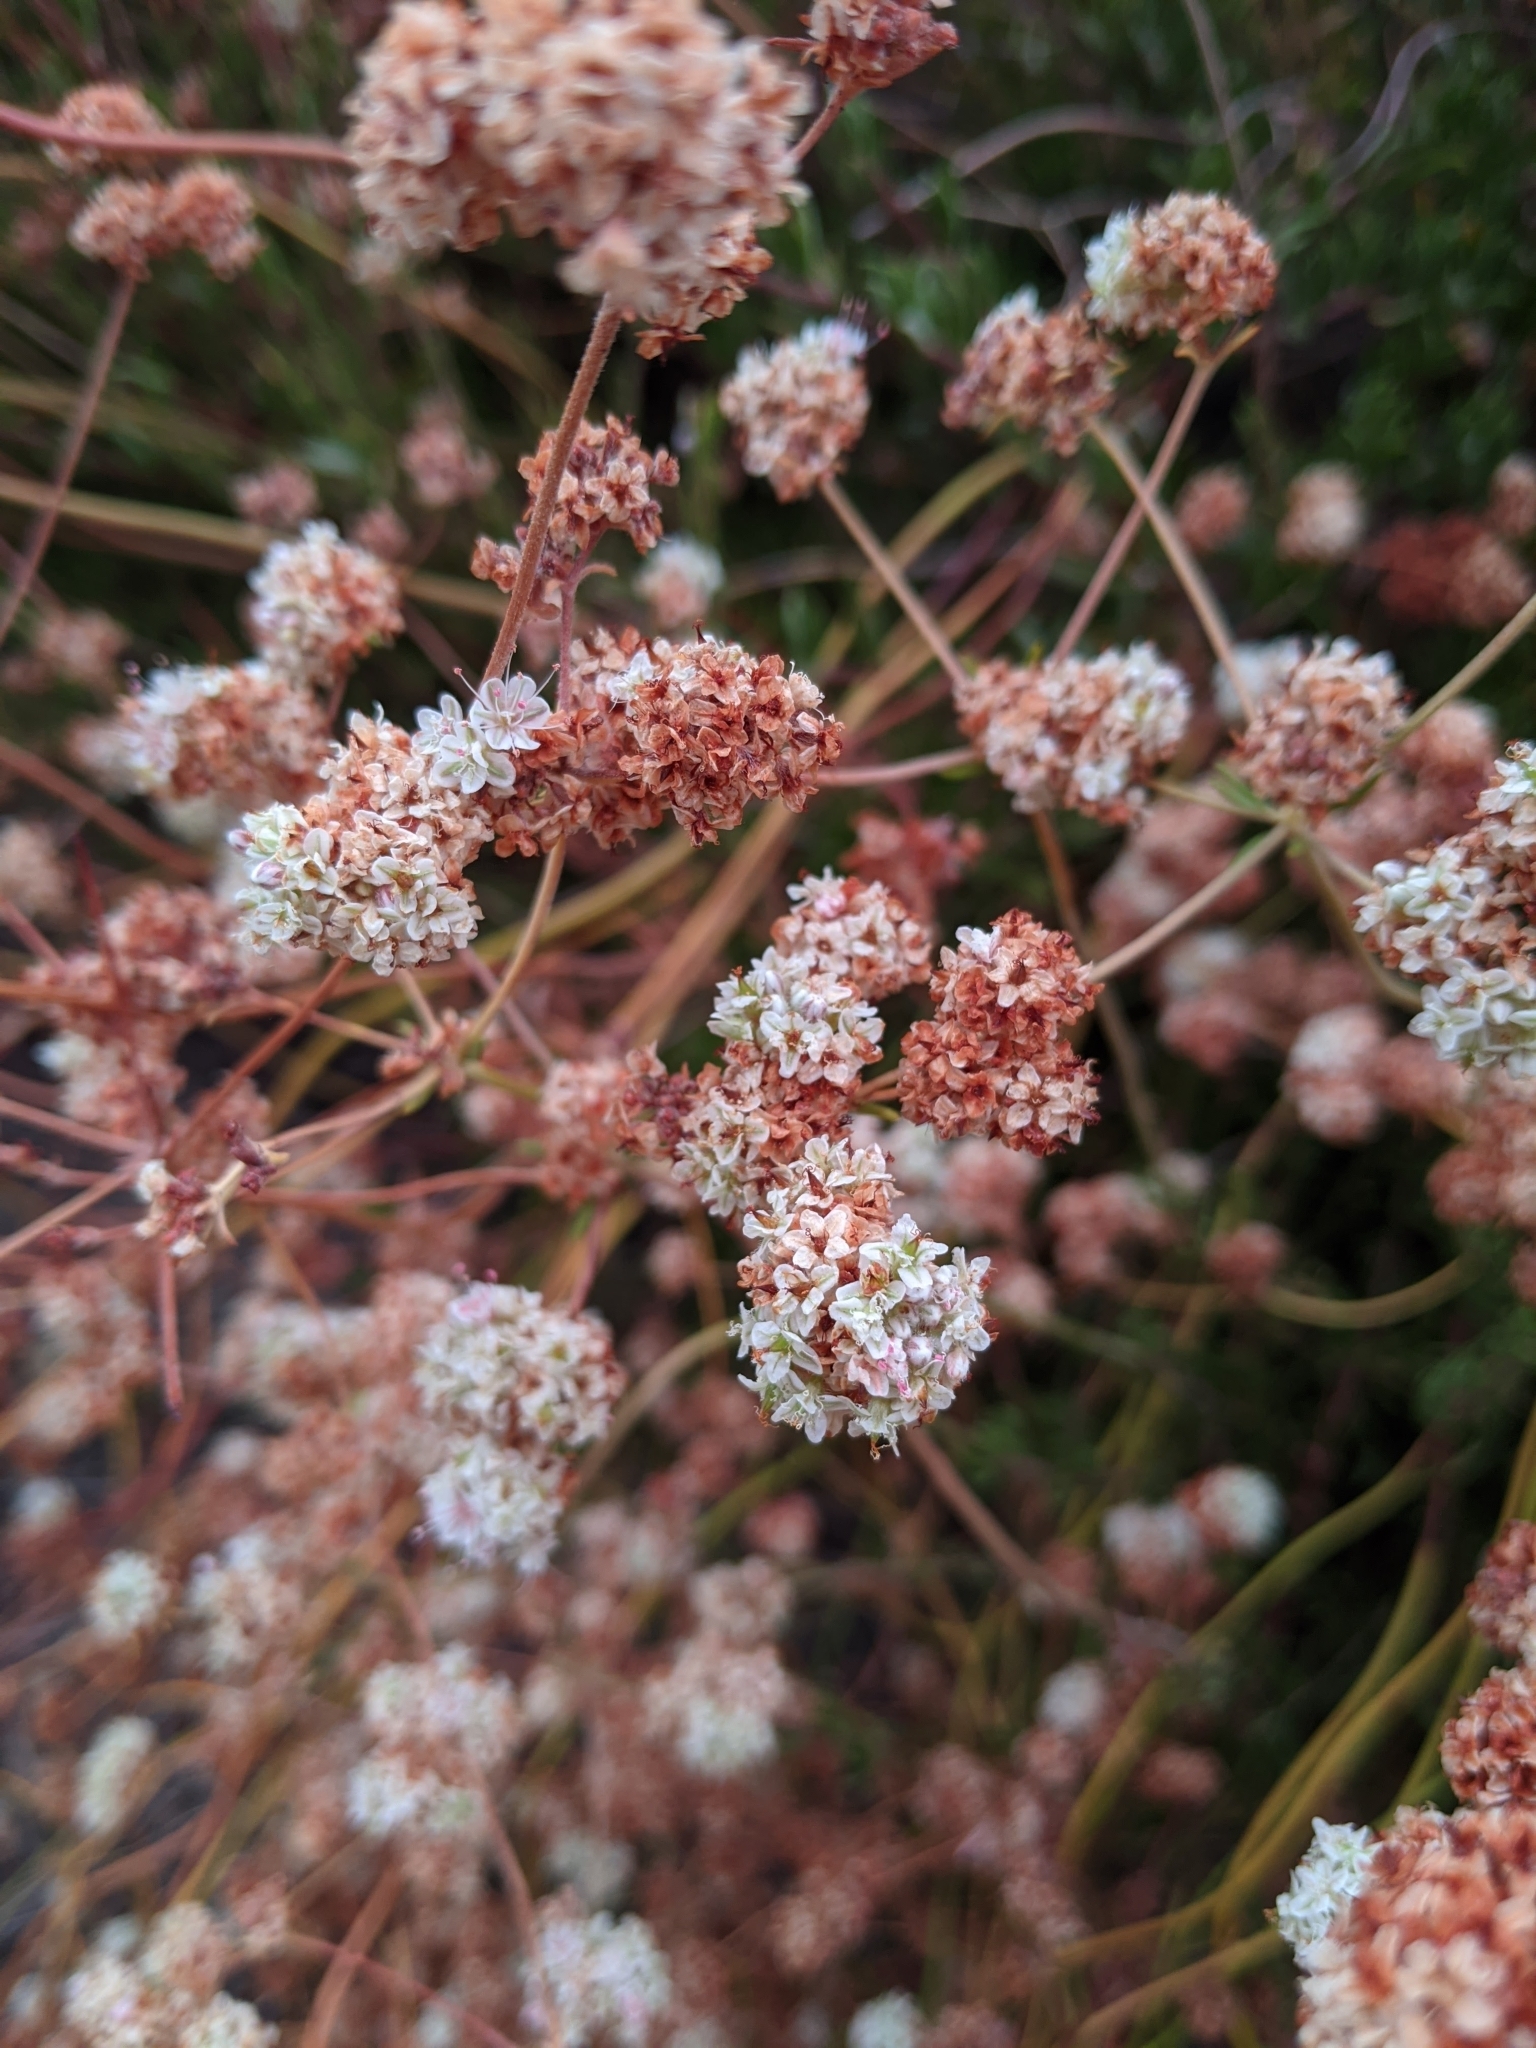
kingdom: Plantae
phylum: Tracheophyta
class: Magnoliopsida
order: Caryophyllales
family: Polygonaceae
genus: Eriogonum
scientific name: Eriogonum fasciculatum
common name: California wild buckwheat
